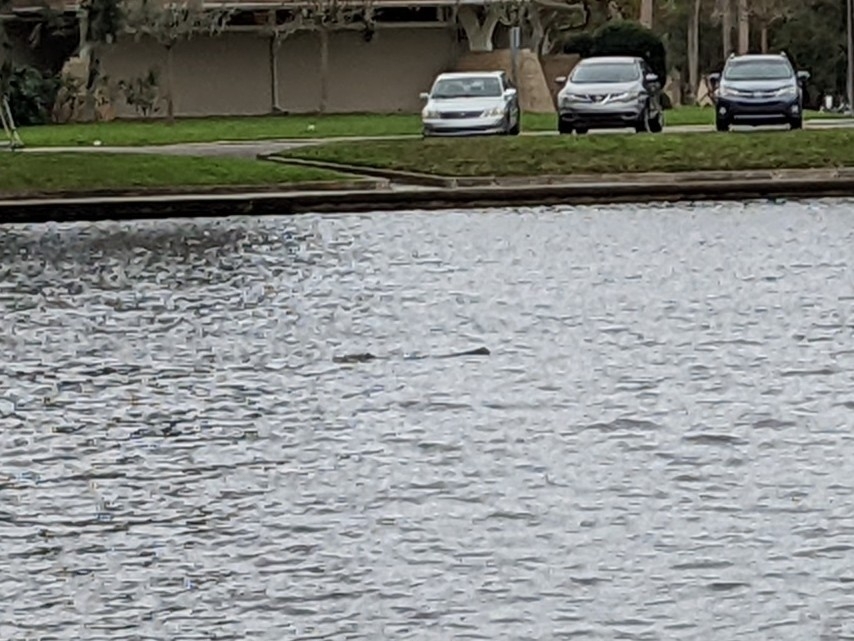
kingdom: Animalia
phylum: Chordata
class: Mammalia
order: Sirenia
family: Trichechidae
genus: Trichechus
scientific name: Trichechus manatus
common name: West indian manatee
